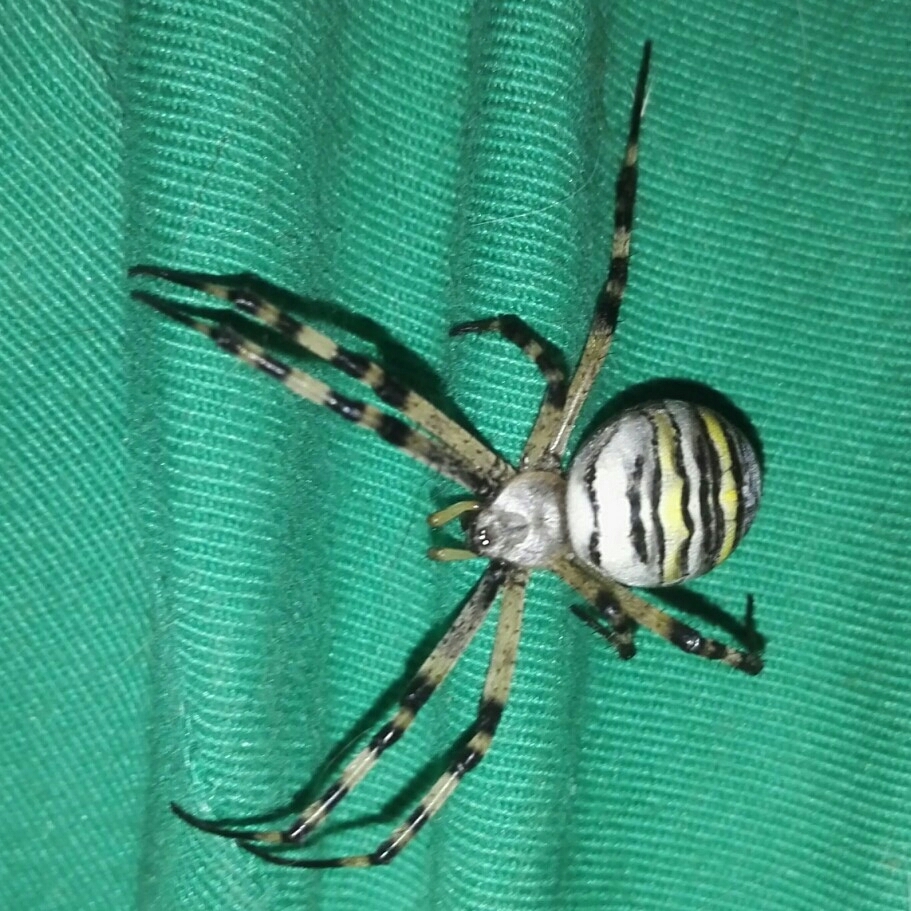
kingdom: Animalia
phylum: Arthropoda
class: Arachnida
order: Araneae
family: Araneidae
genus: Argiope
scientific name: Argiope bruennichi
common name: Wasp spider
